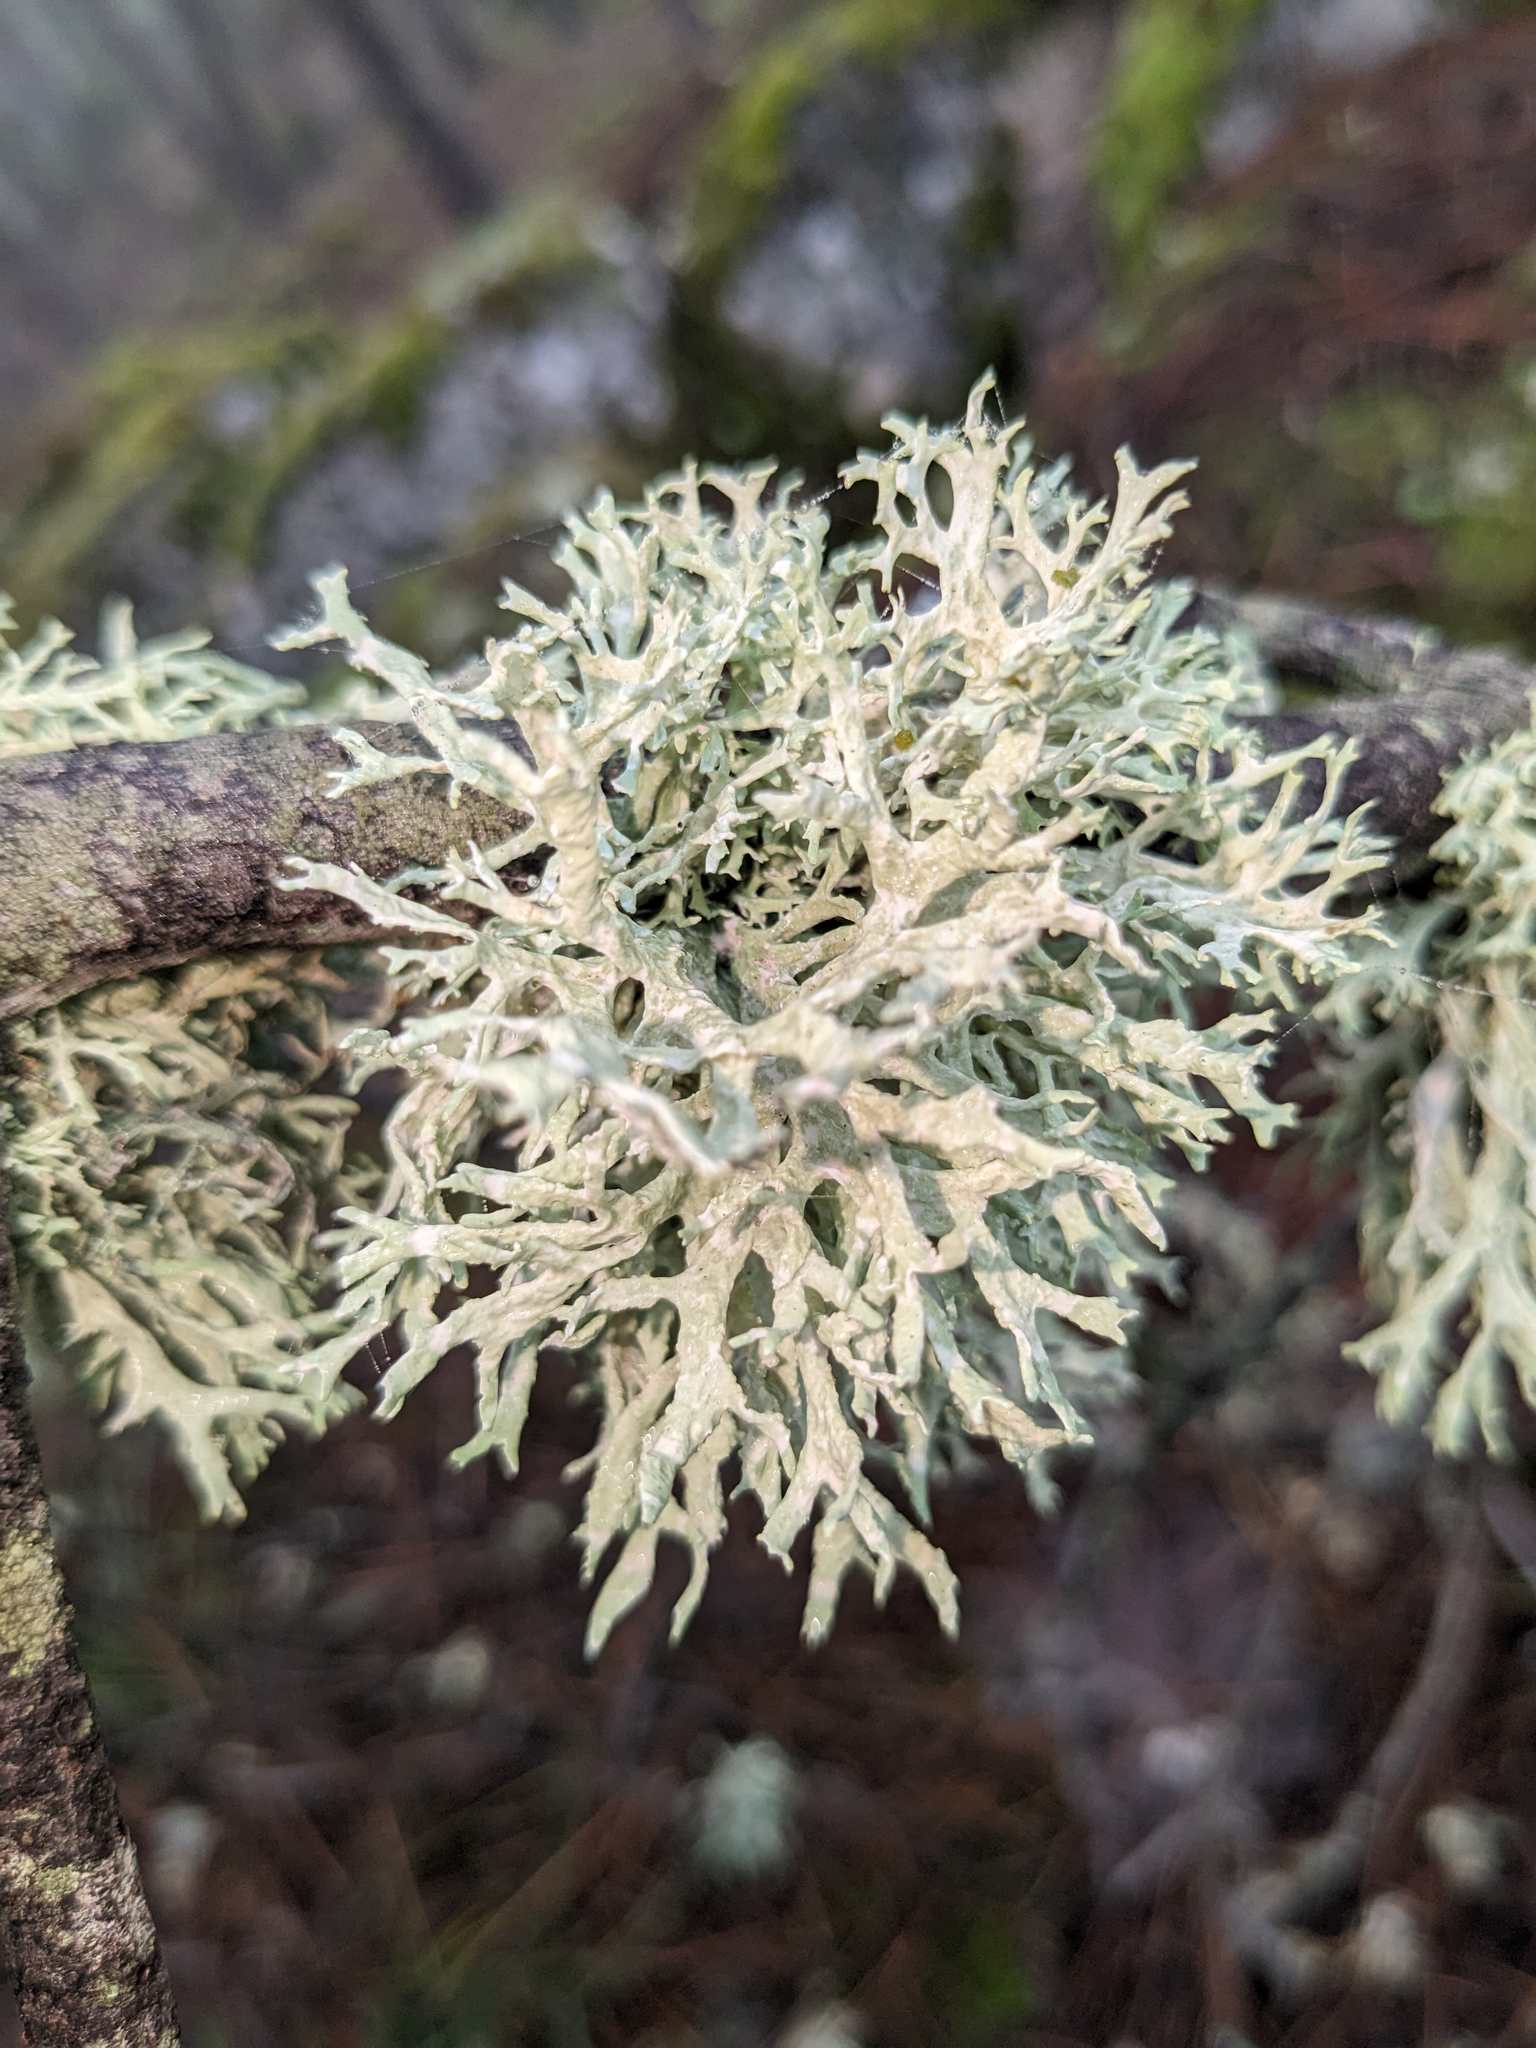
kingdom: Fungi
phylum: Ascomycota
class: Lecanoromycetes
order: Lecanorales
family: Parmeliaceae
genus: Evernia
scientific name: Evernia prunastri
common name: Oak moss
